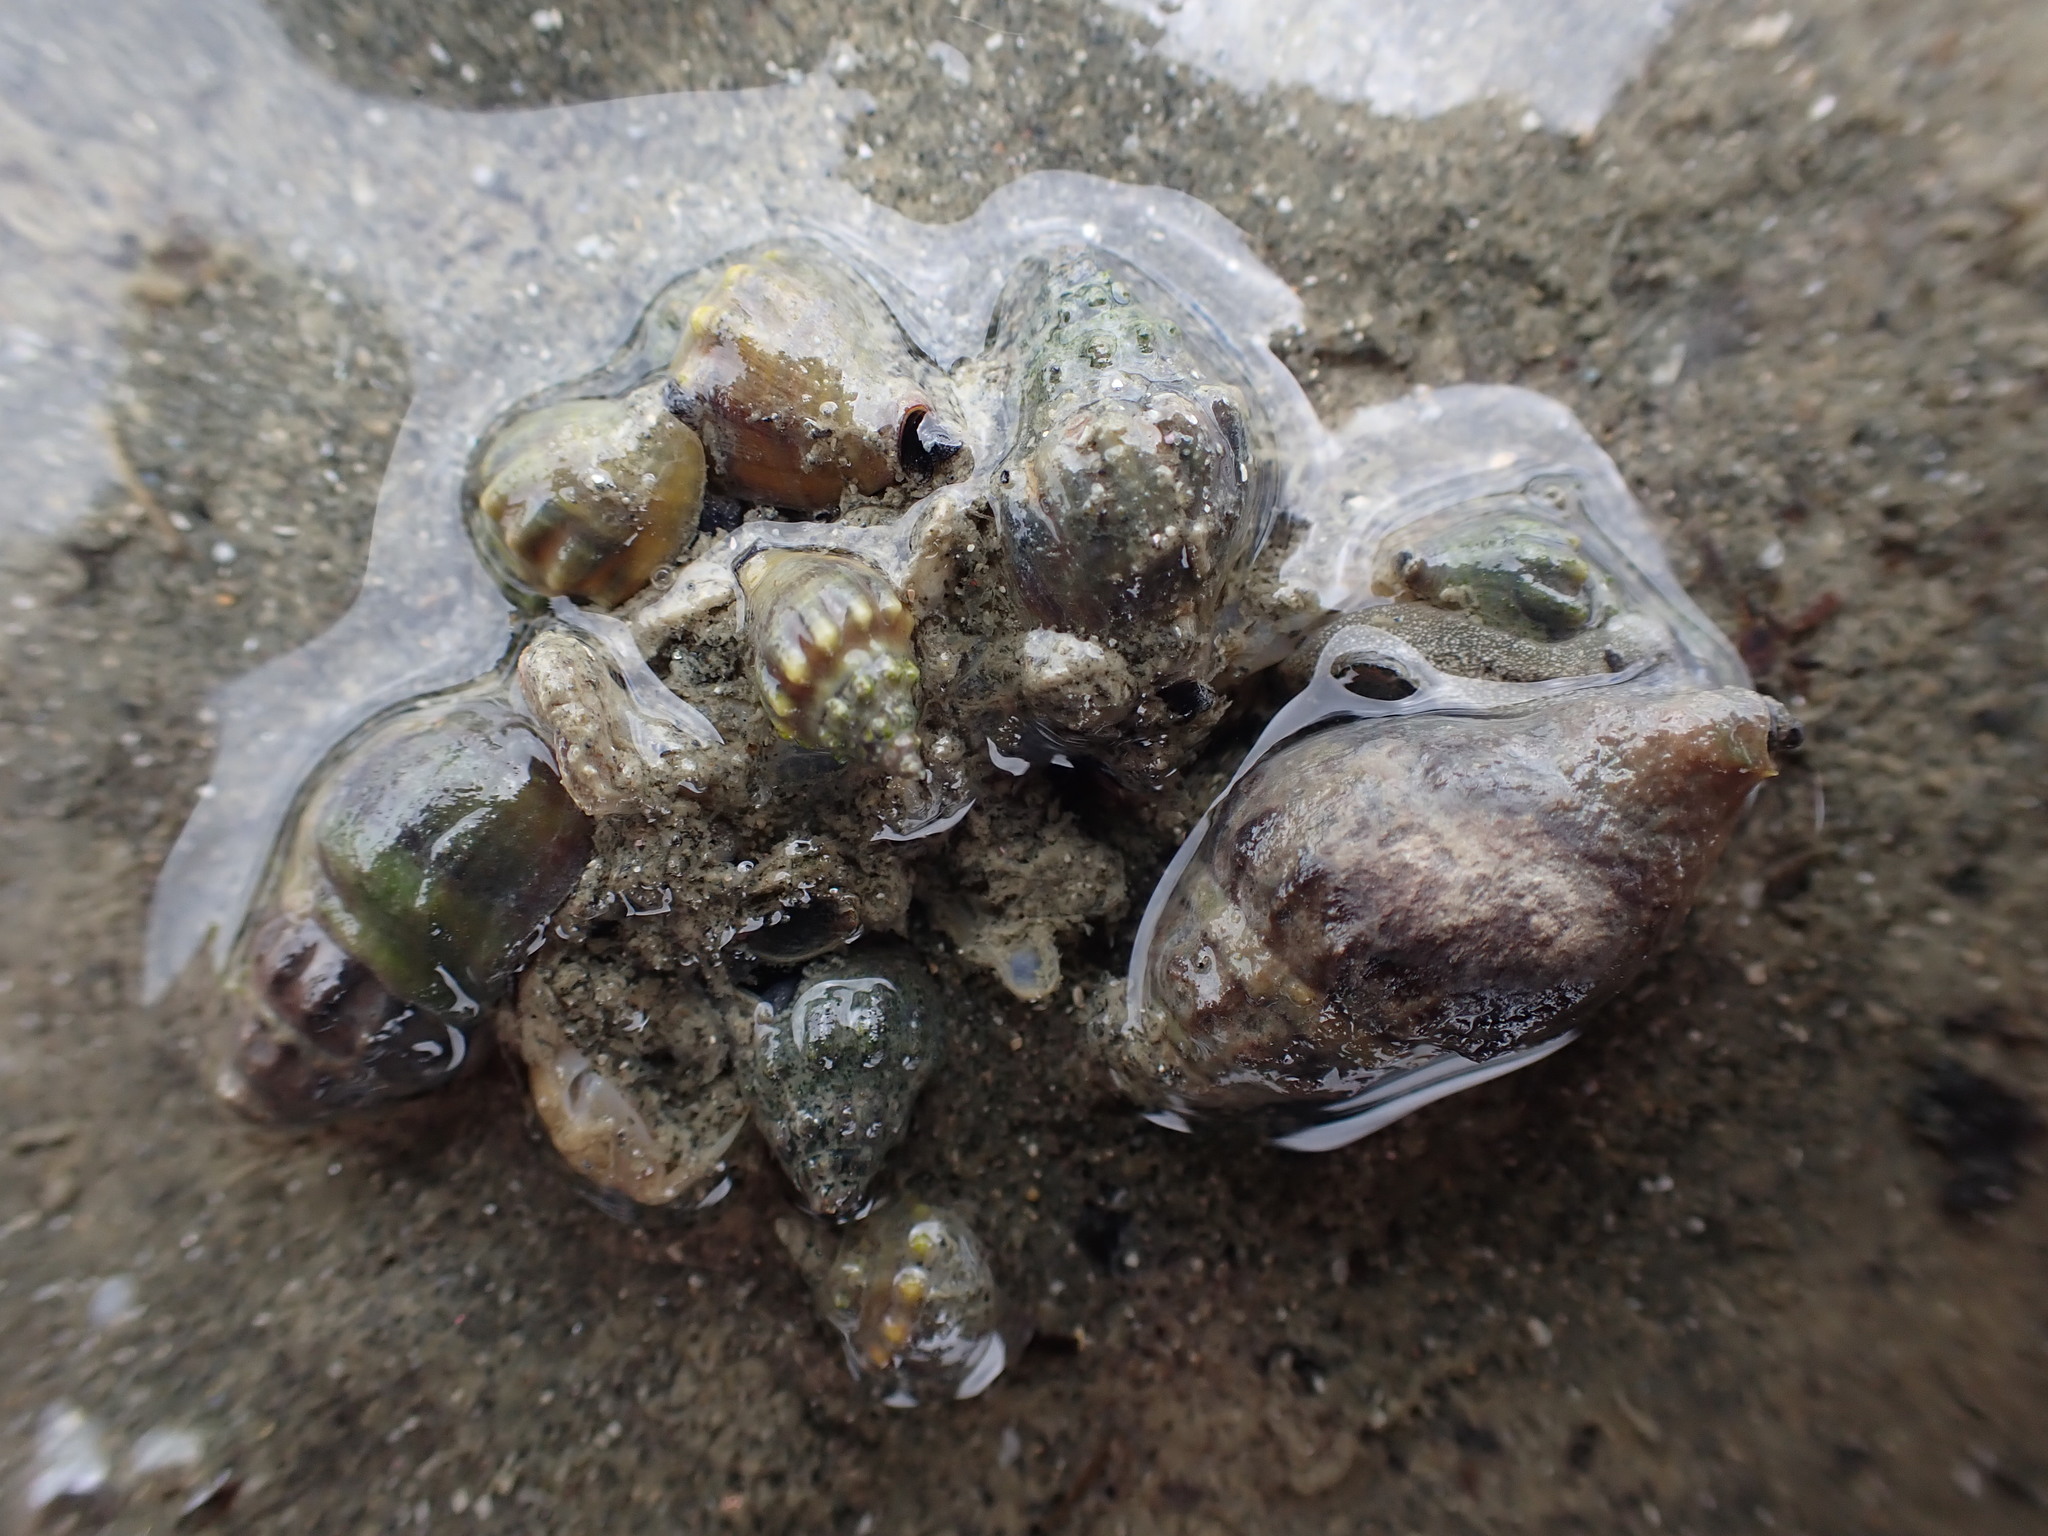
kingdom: Animalia
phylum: Mollusca
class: Gastropoda
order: Neogastropoda
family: Cominellidae
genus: Cominella
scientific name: Cominella glandiformis
